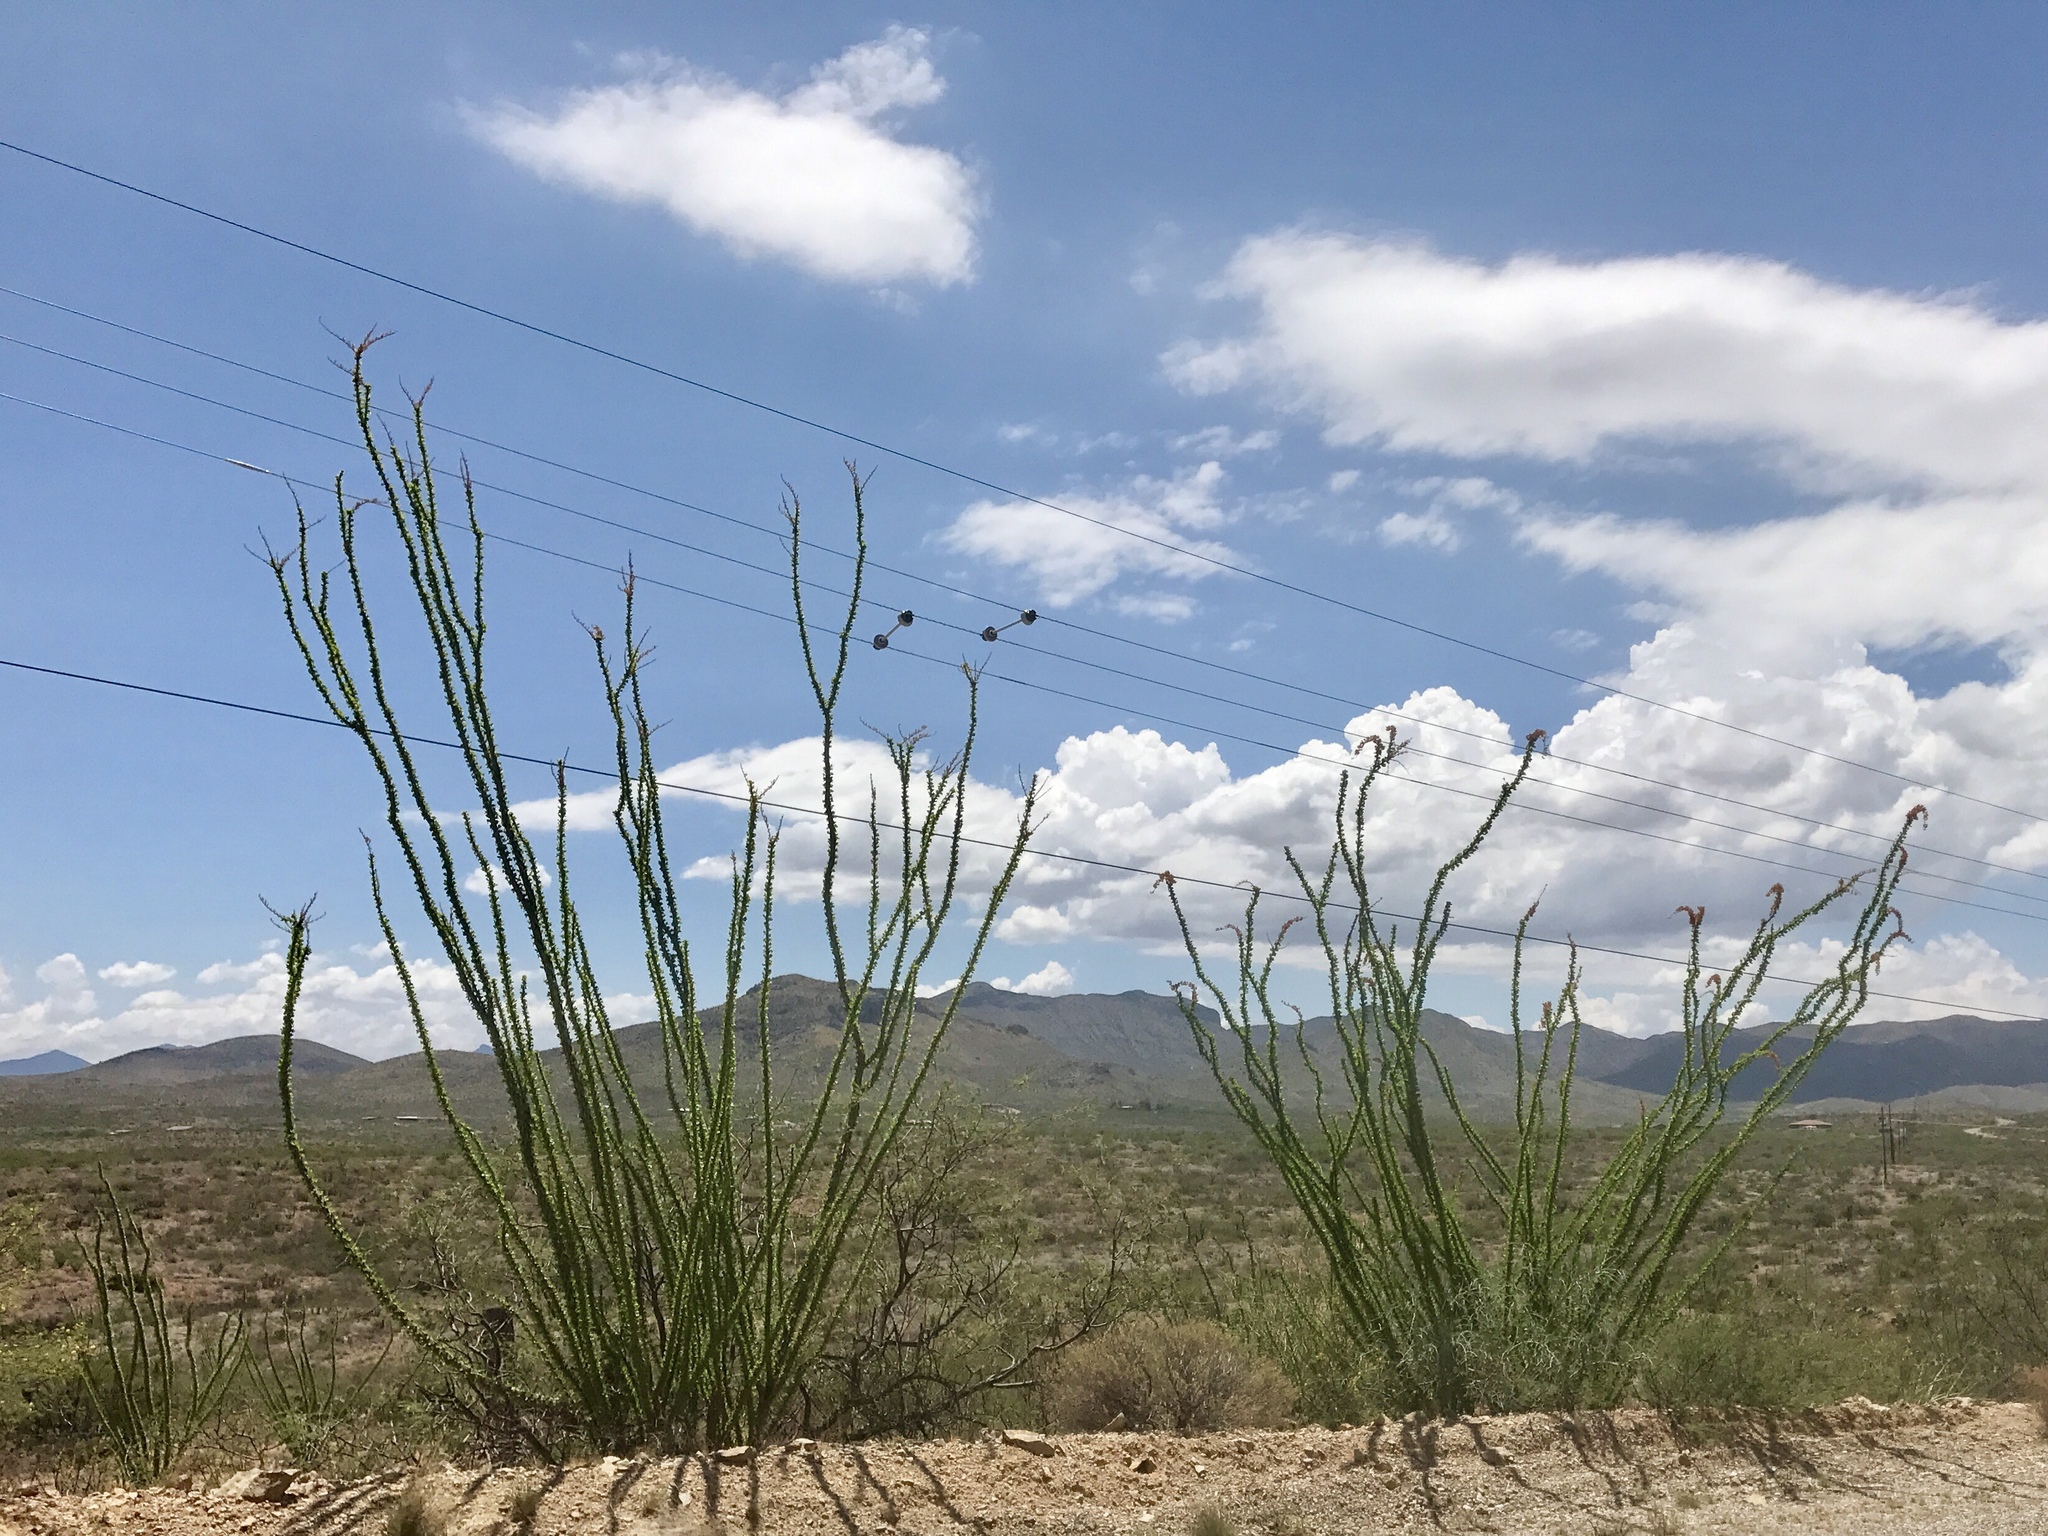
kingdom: Plantae
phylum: Tracheophyta
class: Magnoliopsida
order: Ericales
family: Fouquieriaceae
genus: Fouquieria
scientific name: Fouquieria splendens
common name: Vine-cactus
